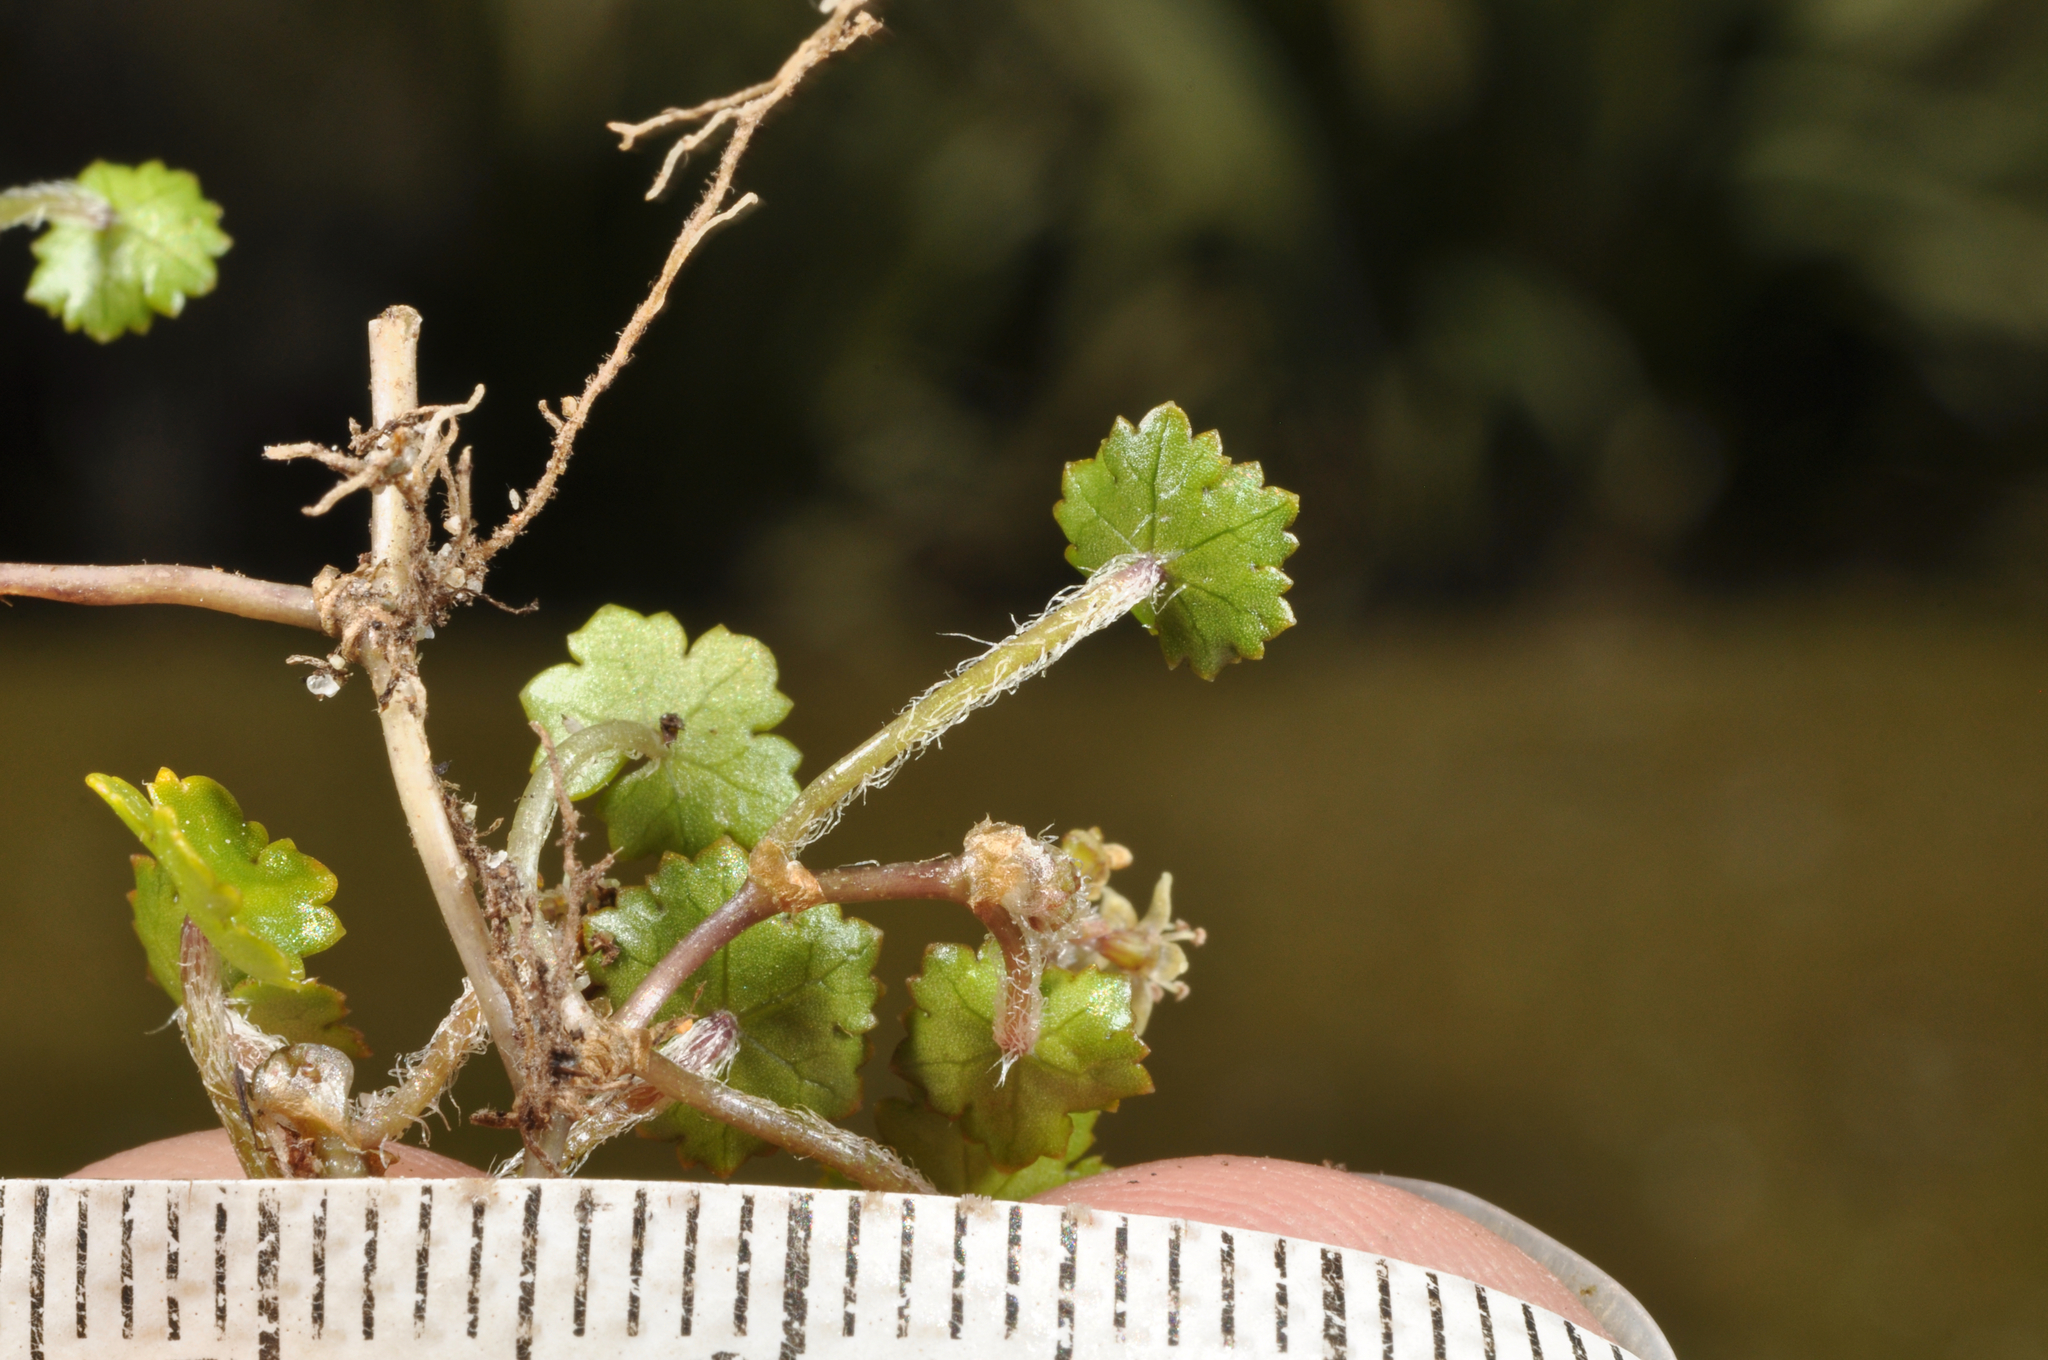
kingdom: Plantae
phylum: Tracheophyta
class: Magnoliopsida
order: Apiales
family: Araliaceae
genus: Hydrocotyle
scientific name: Hydrocotyle microphylla
